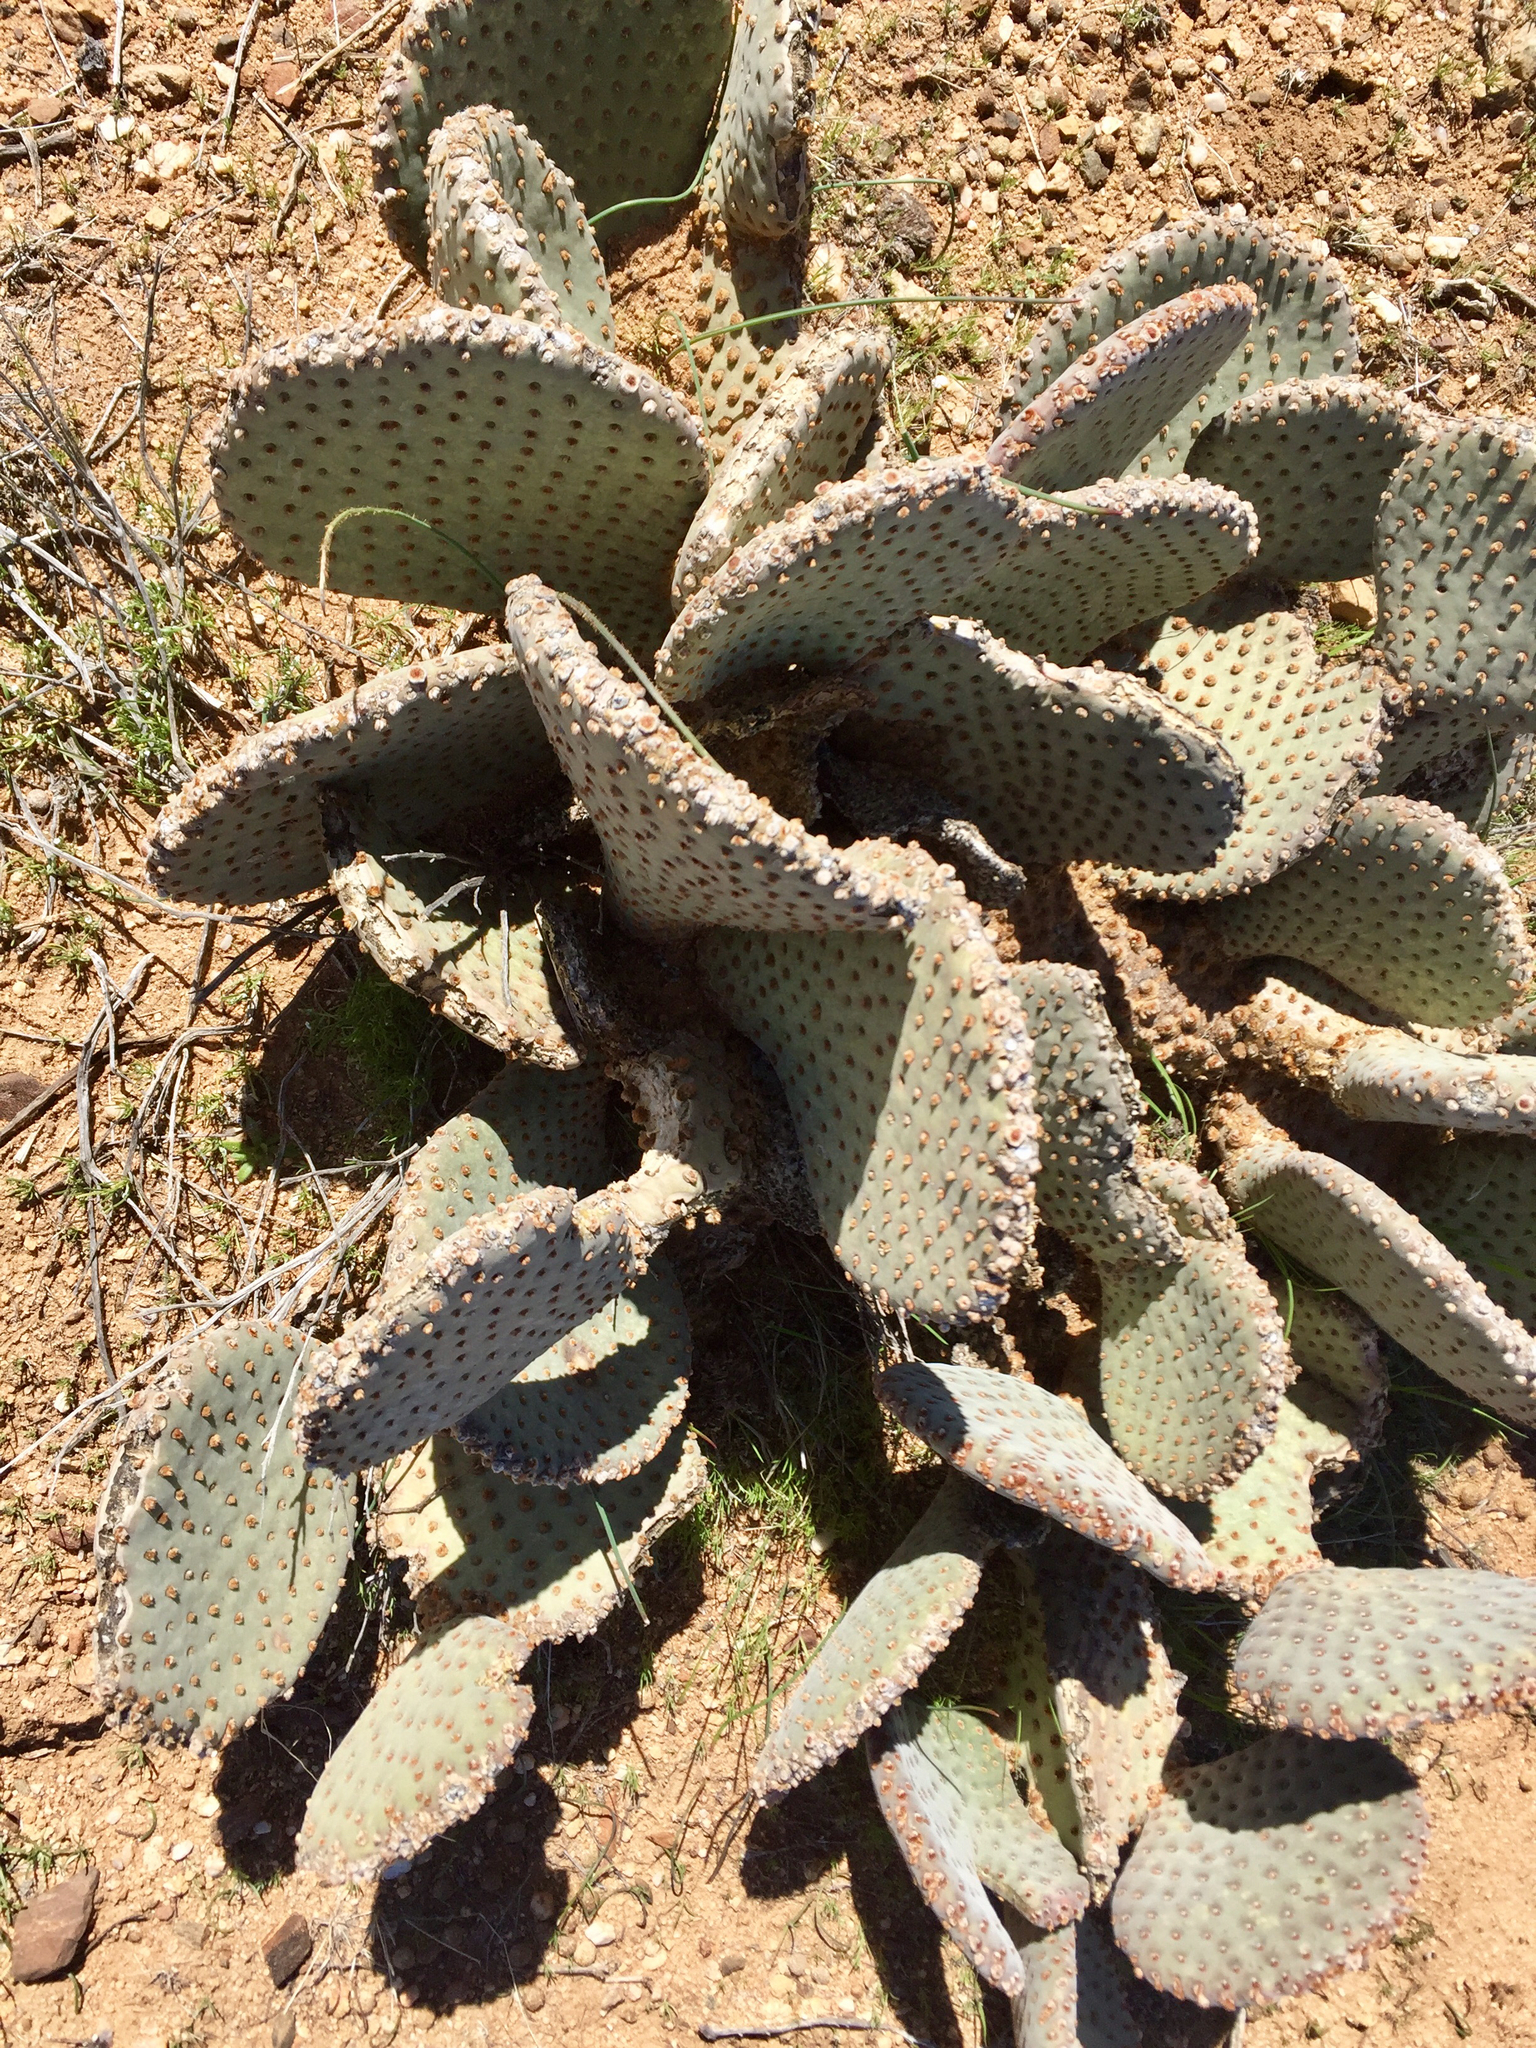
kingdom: Plantae
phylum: Tracheophyta
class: Magnoliopsida
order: Caryophyllales
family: Cactaceae
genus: Opuntia
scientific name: Opuntia basilaris
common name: Beavertail prickly-pear
